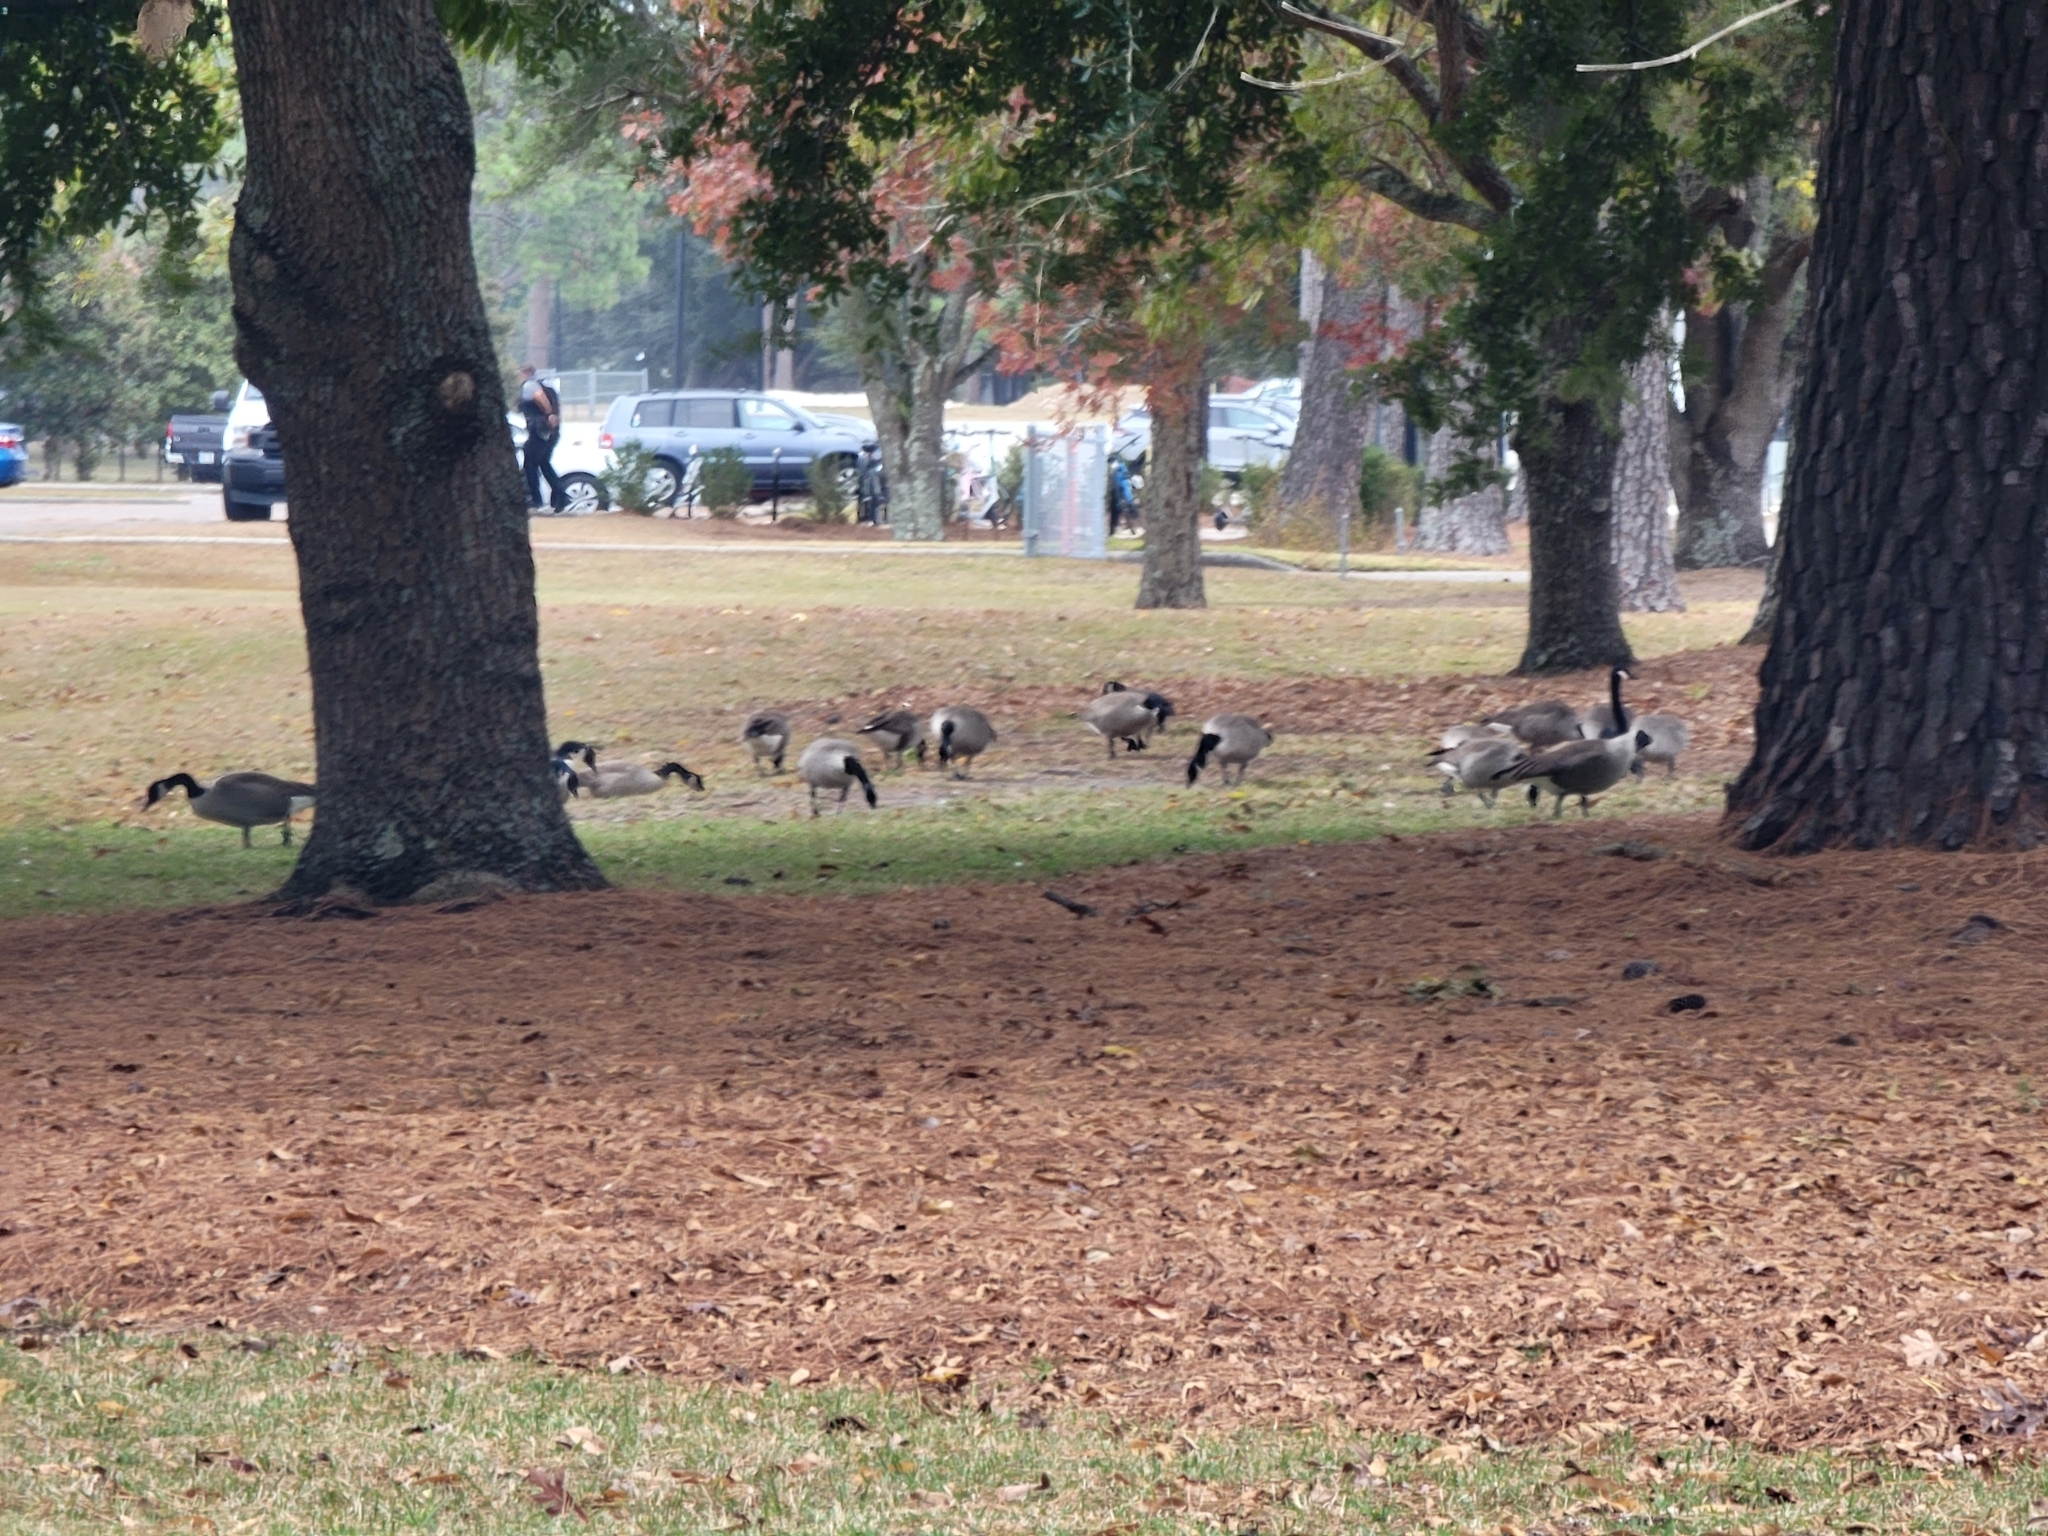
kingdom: Animalia
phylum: Chordata
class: Aves
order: Anseriformes
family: Anatidae
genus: Branta
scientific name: Branta canadensis
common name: Canada goose
